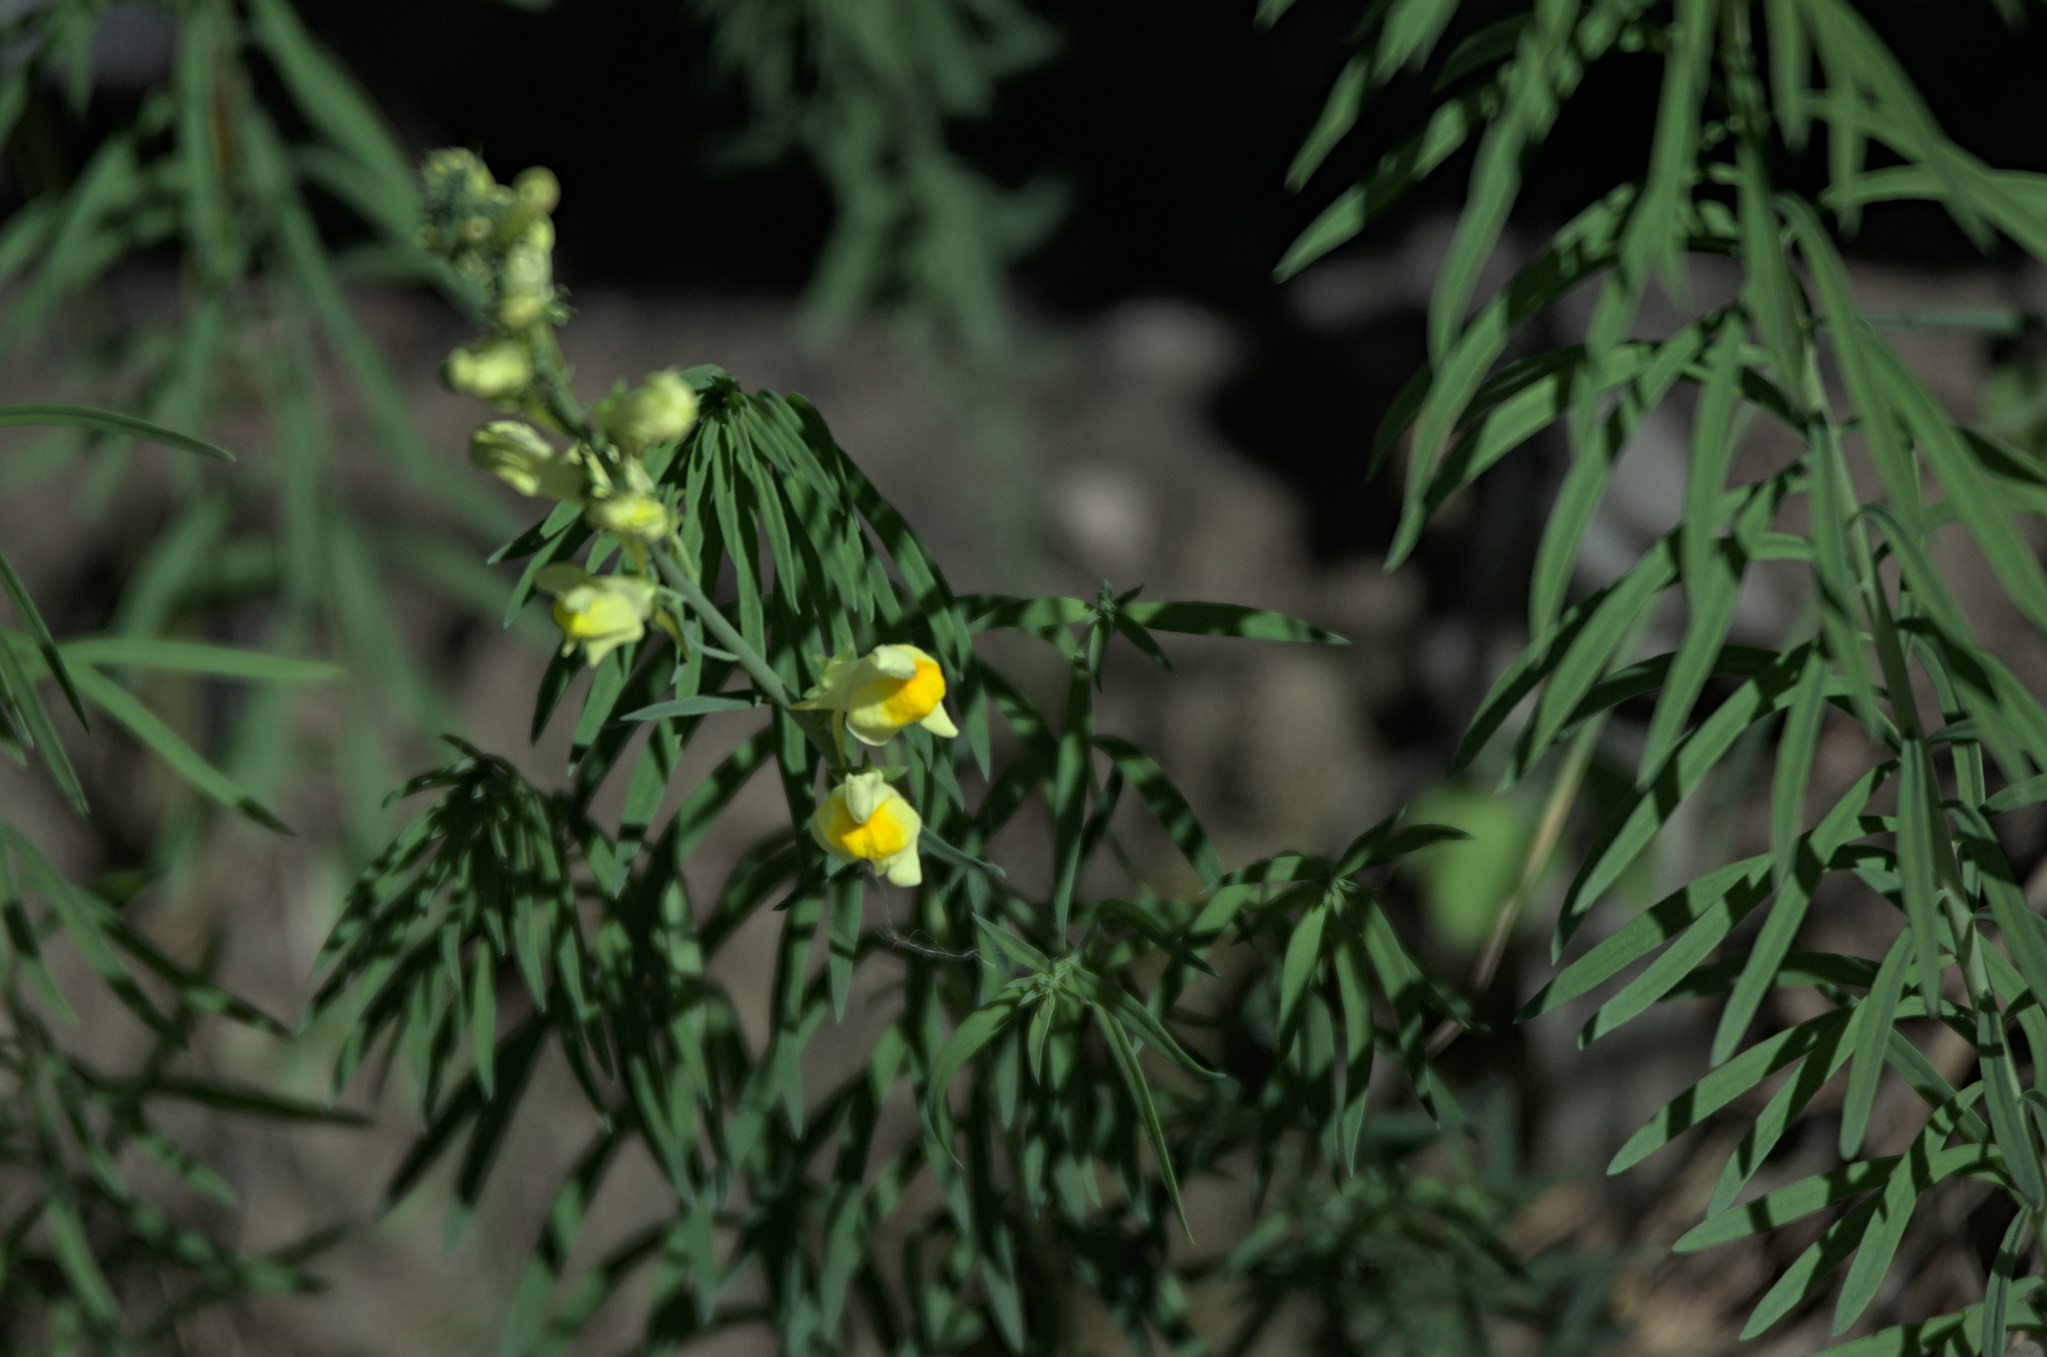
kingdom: Plantae
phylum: Tracheophyta
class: Magnoliopsida
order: Lamiales
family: Plantaginaceae
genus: Linaria
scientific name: Linaria vulgaris
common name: Butter and eggs
